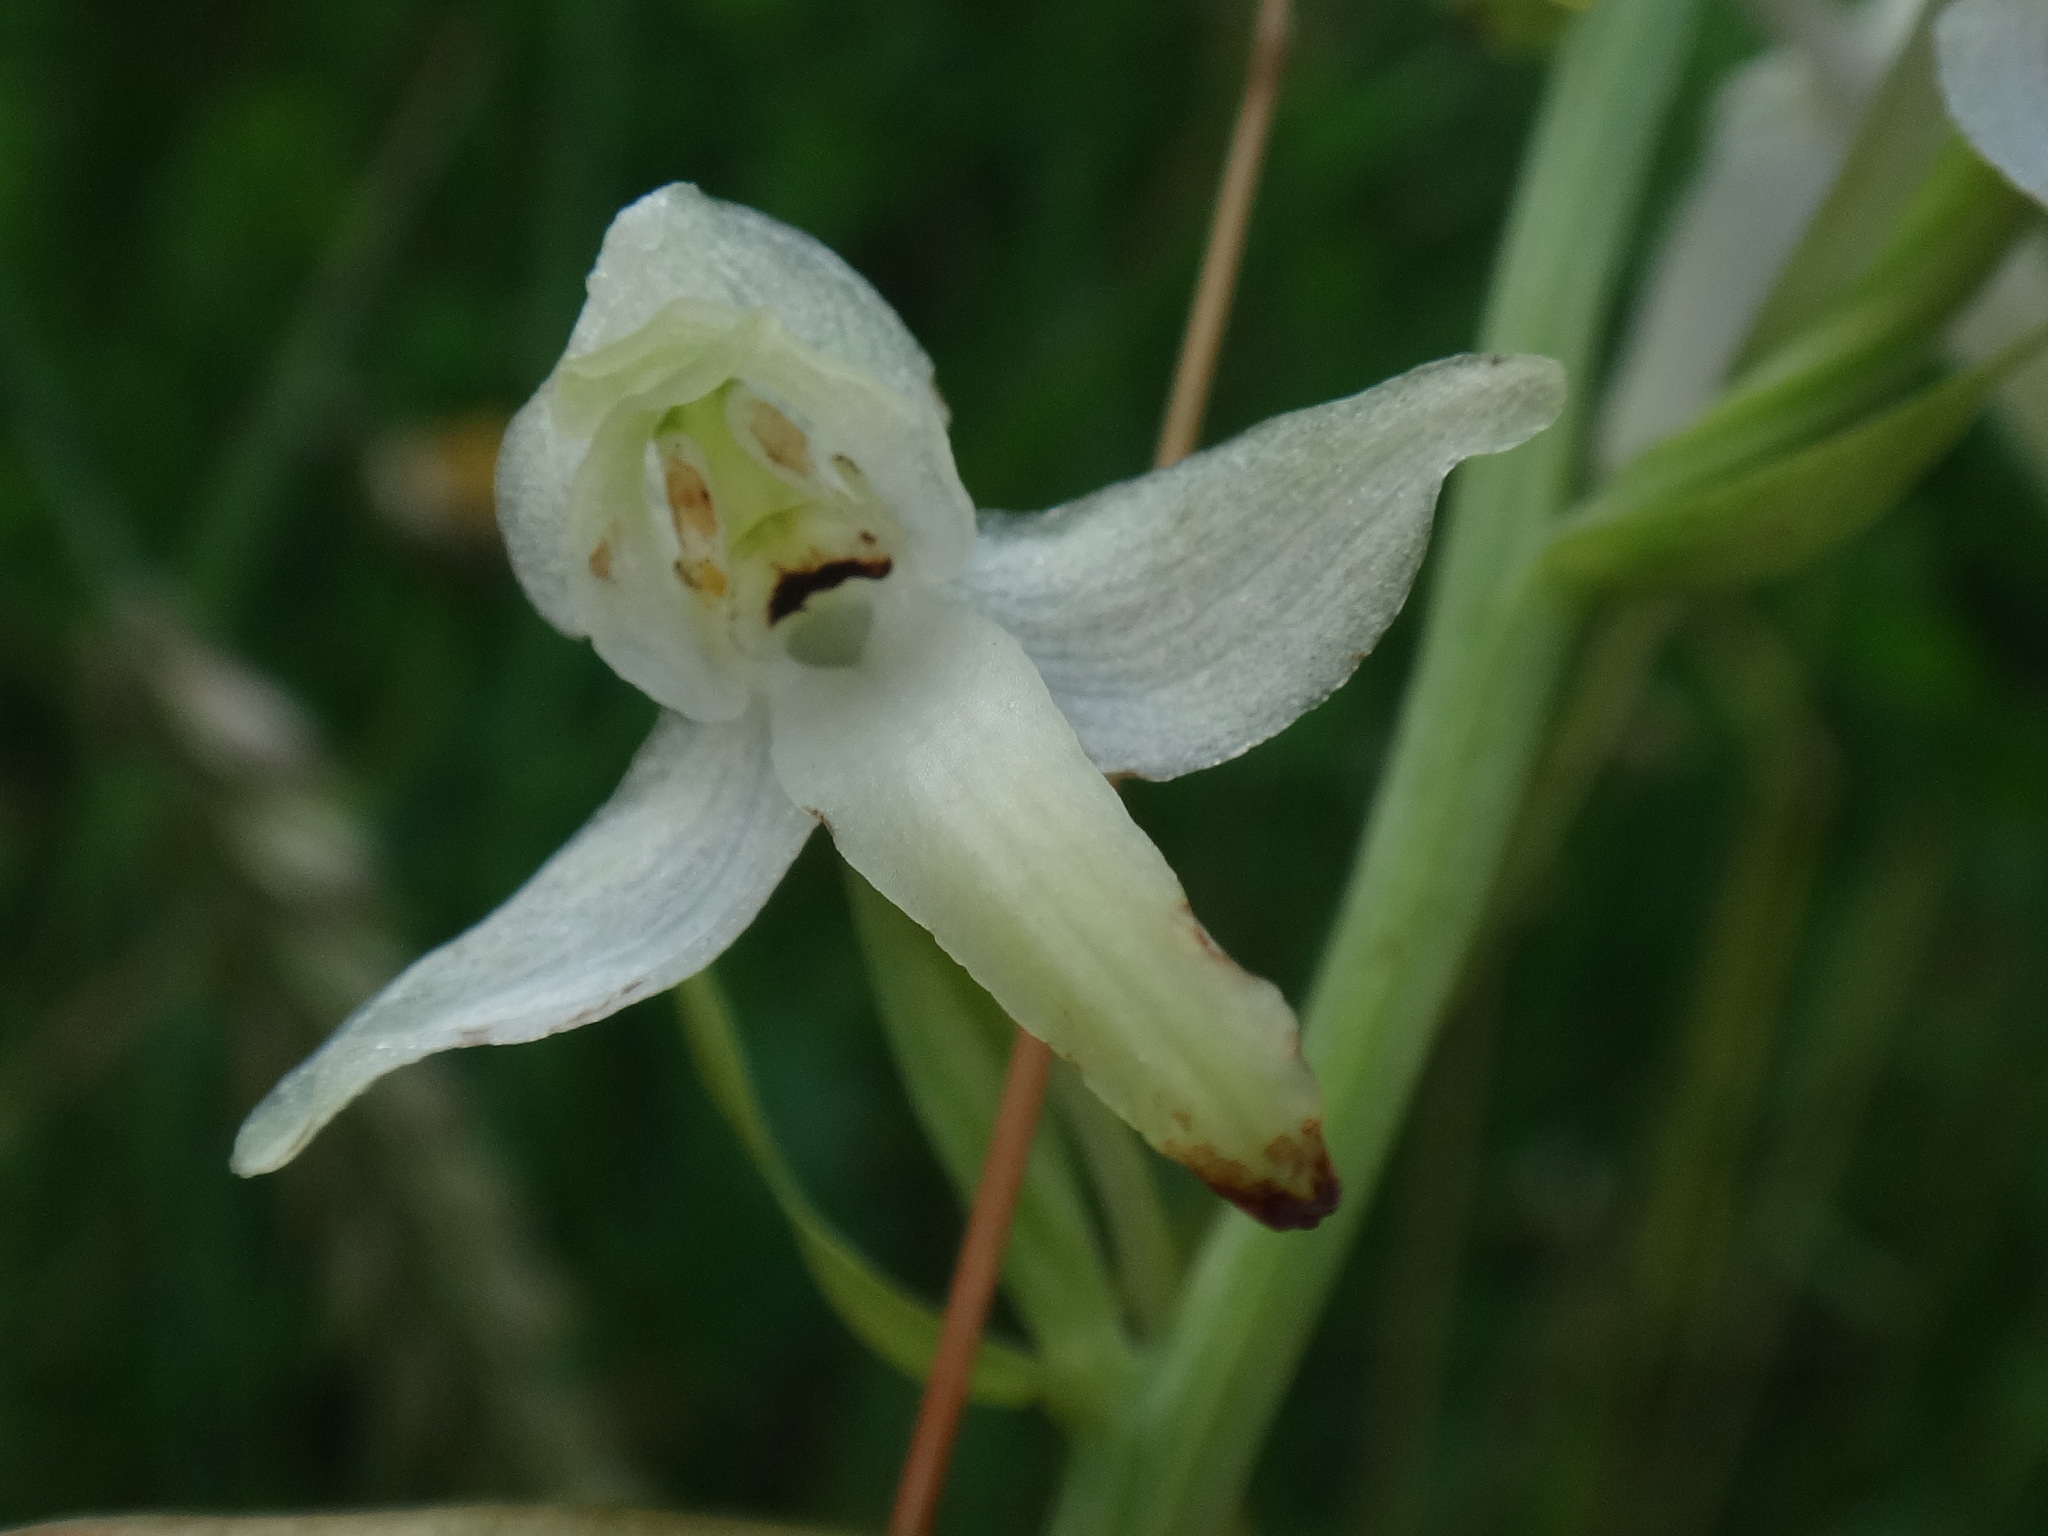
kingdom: Plantae
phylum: Tracheophyta
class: Liliopsida
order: Asparagales
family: Orchidaceae
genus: Platanthera
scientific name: Platanthera chlorantha
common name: Greater butterfly-orchid
